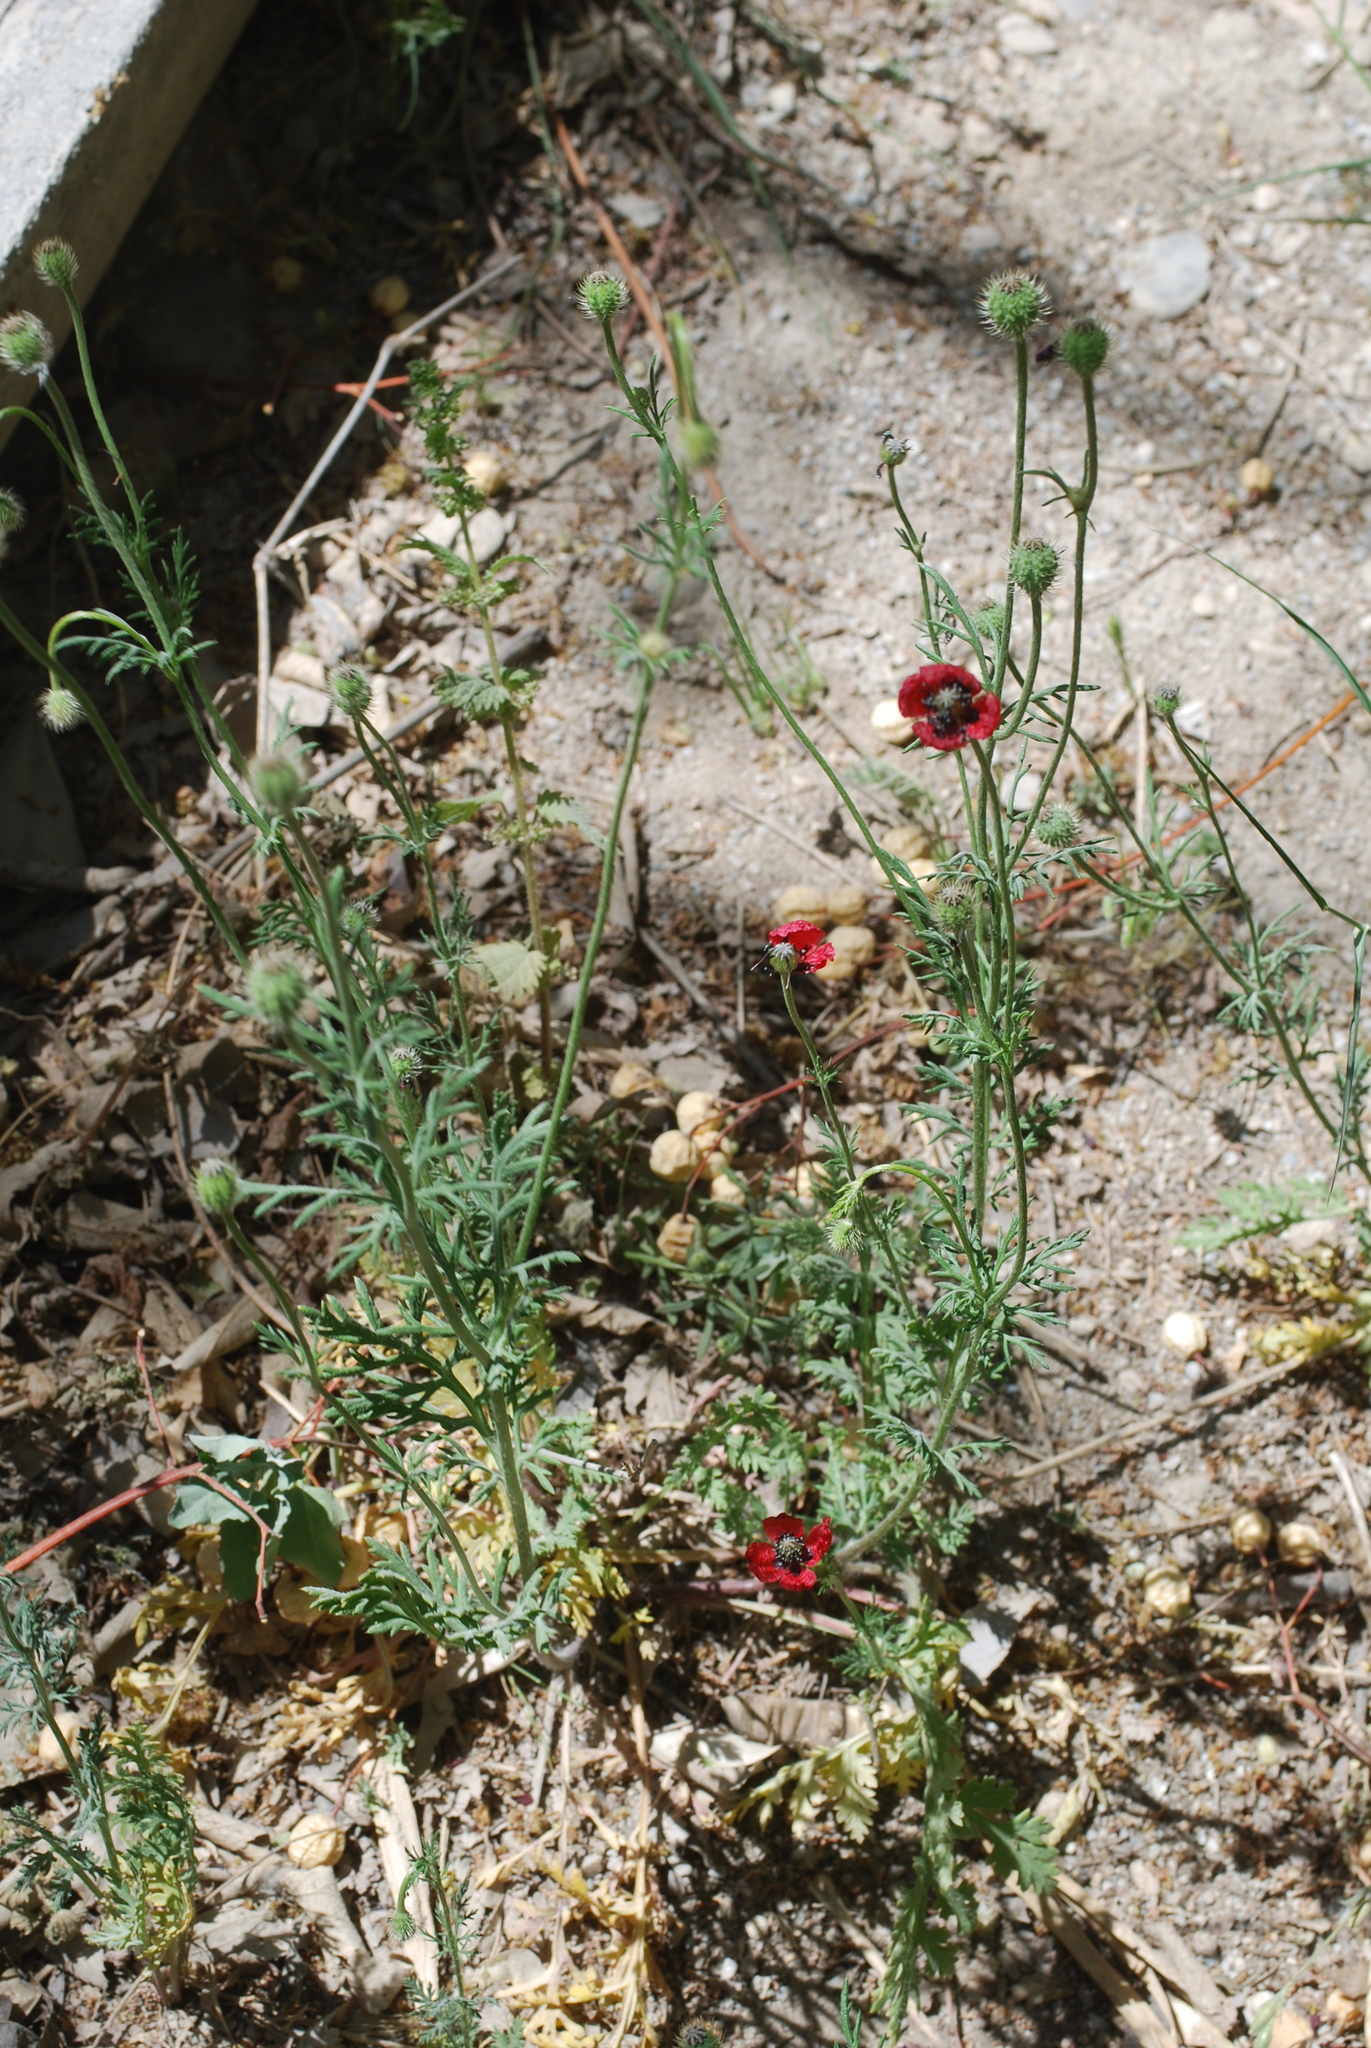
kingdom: Plantae
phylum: Tracheophyta
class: Magnoliopsida
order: Ranunculales
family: Papaveraceae
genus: Roemeria
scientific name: Roemeria hispida
